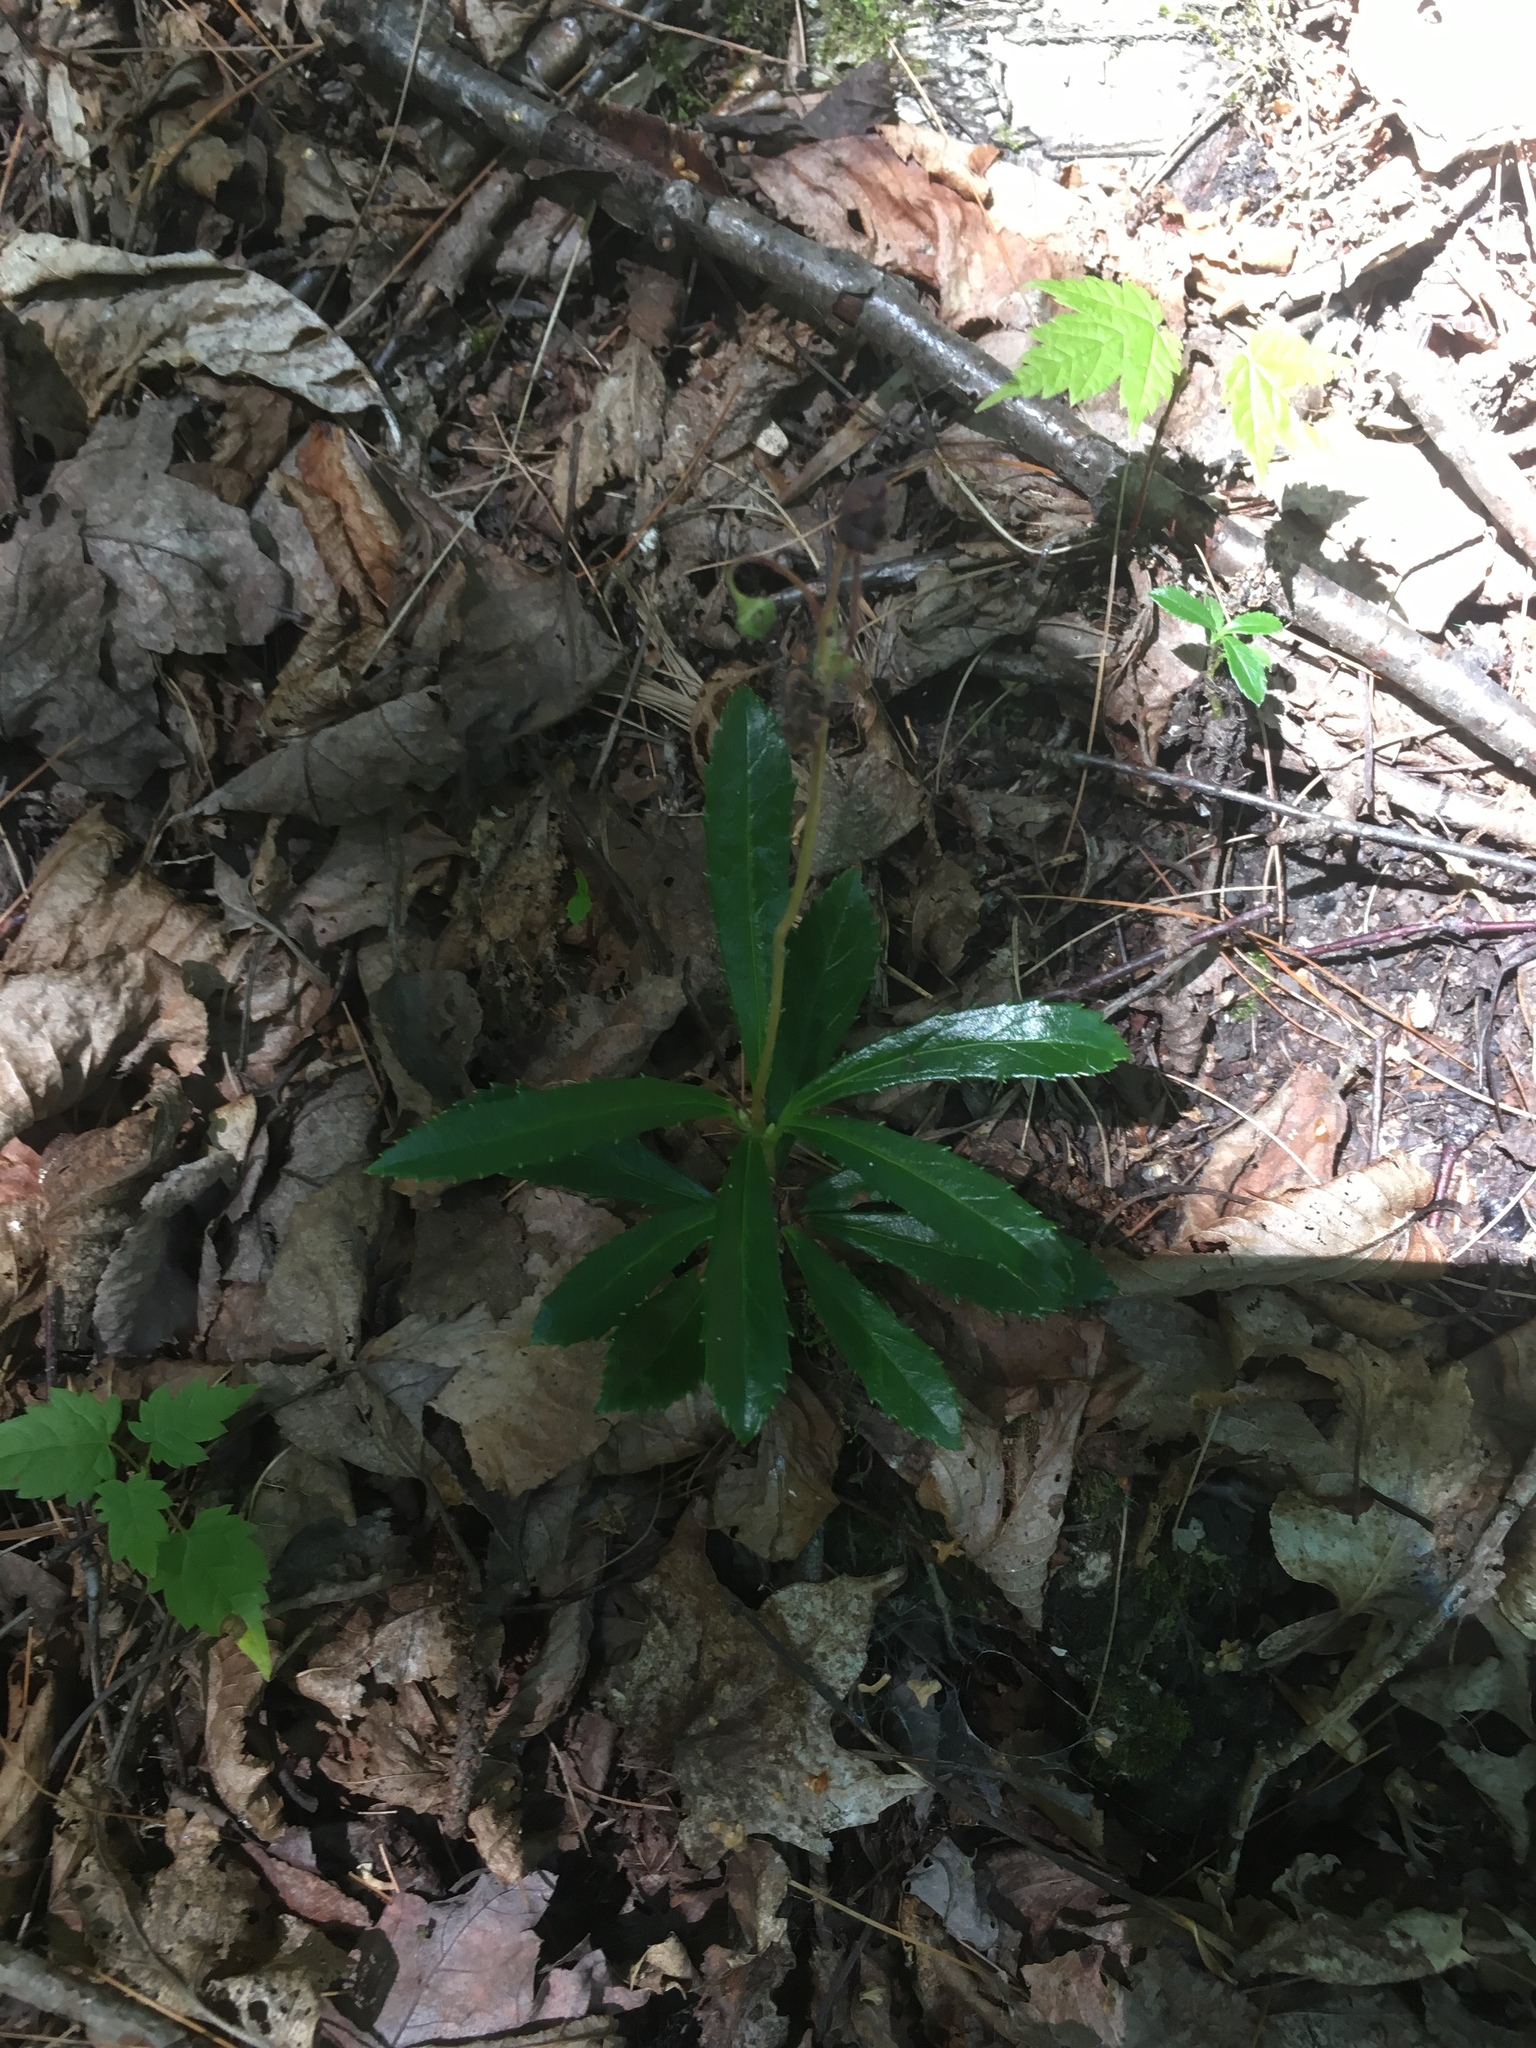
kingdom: Plantae
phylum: Tracheophyta
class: Magnoliopsida
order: Ericales
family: Ericaceae
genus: Chimaphila
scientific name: Chimaphila umbellata
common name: Pipsissewa
